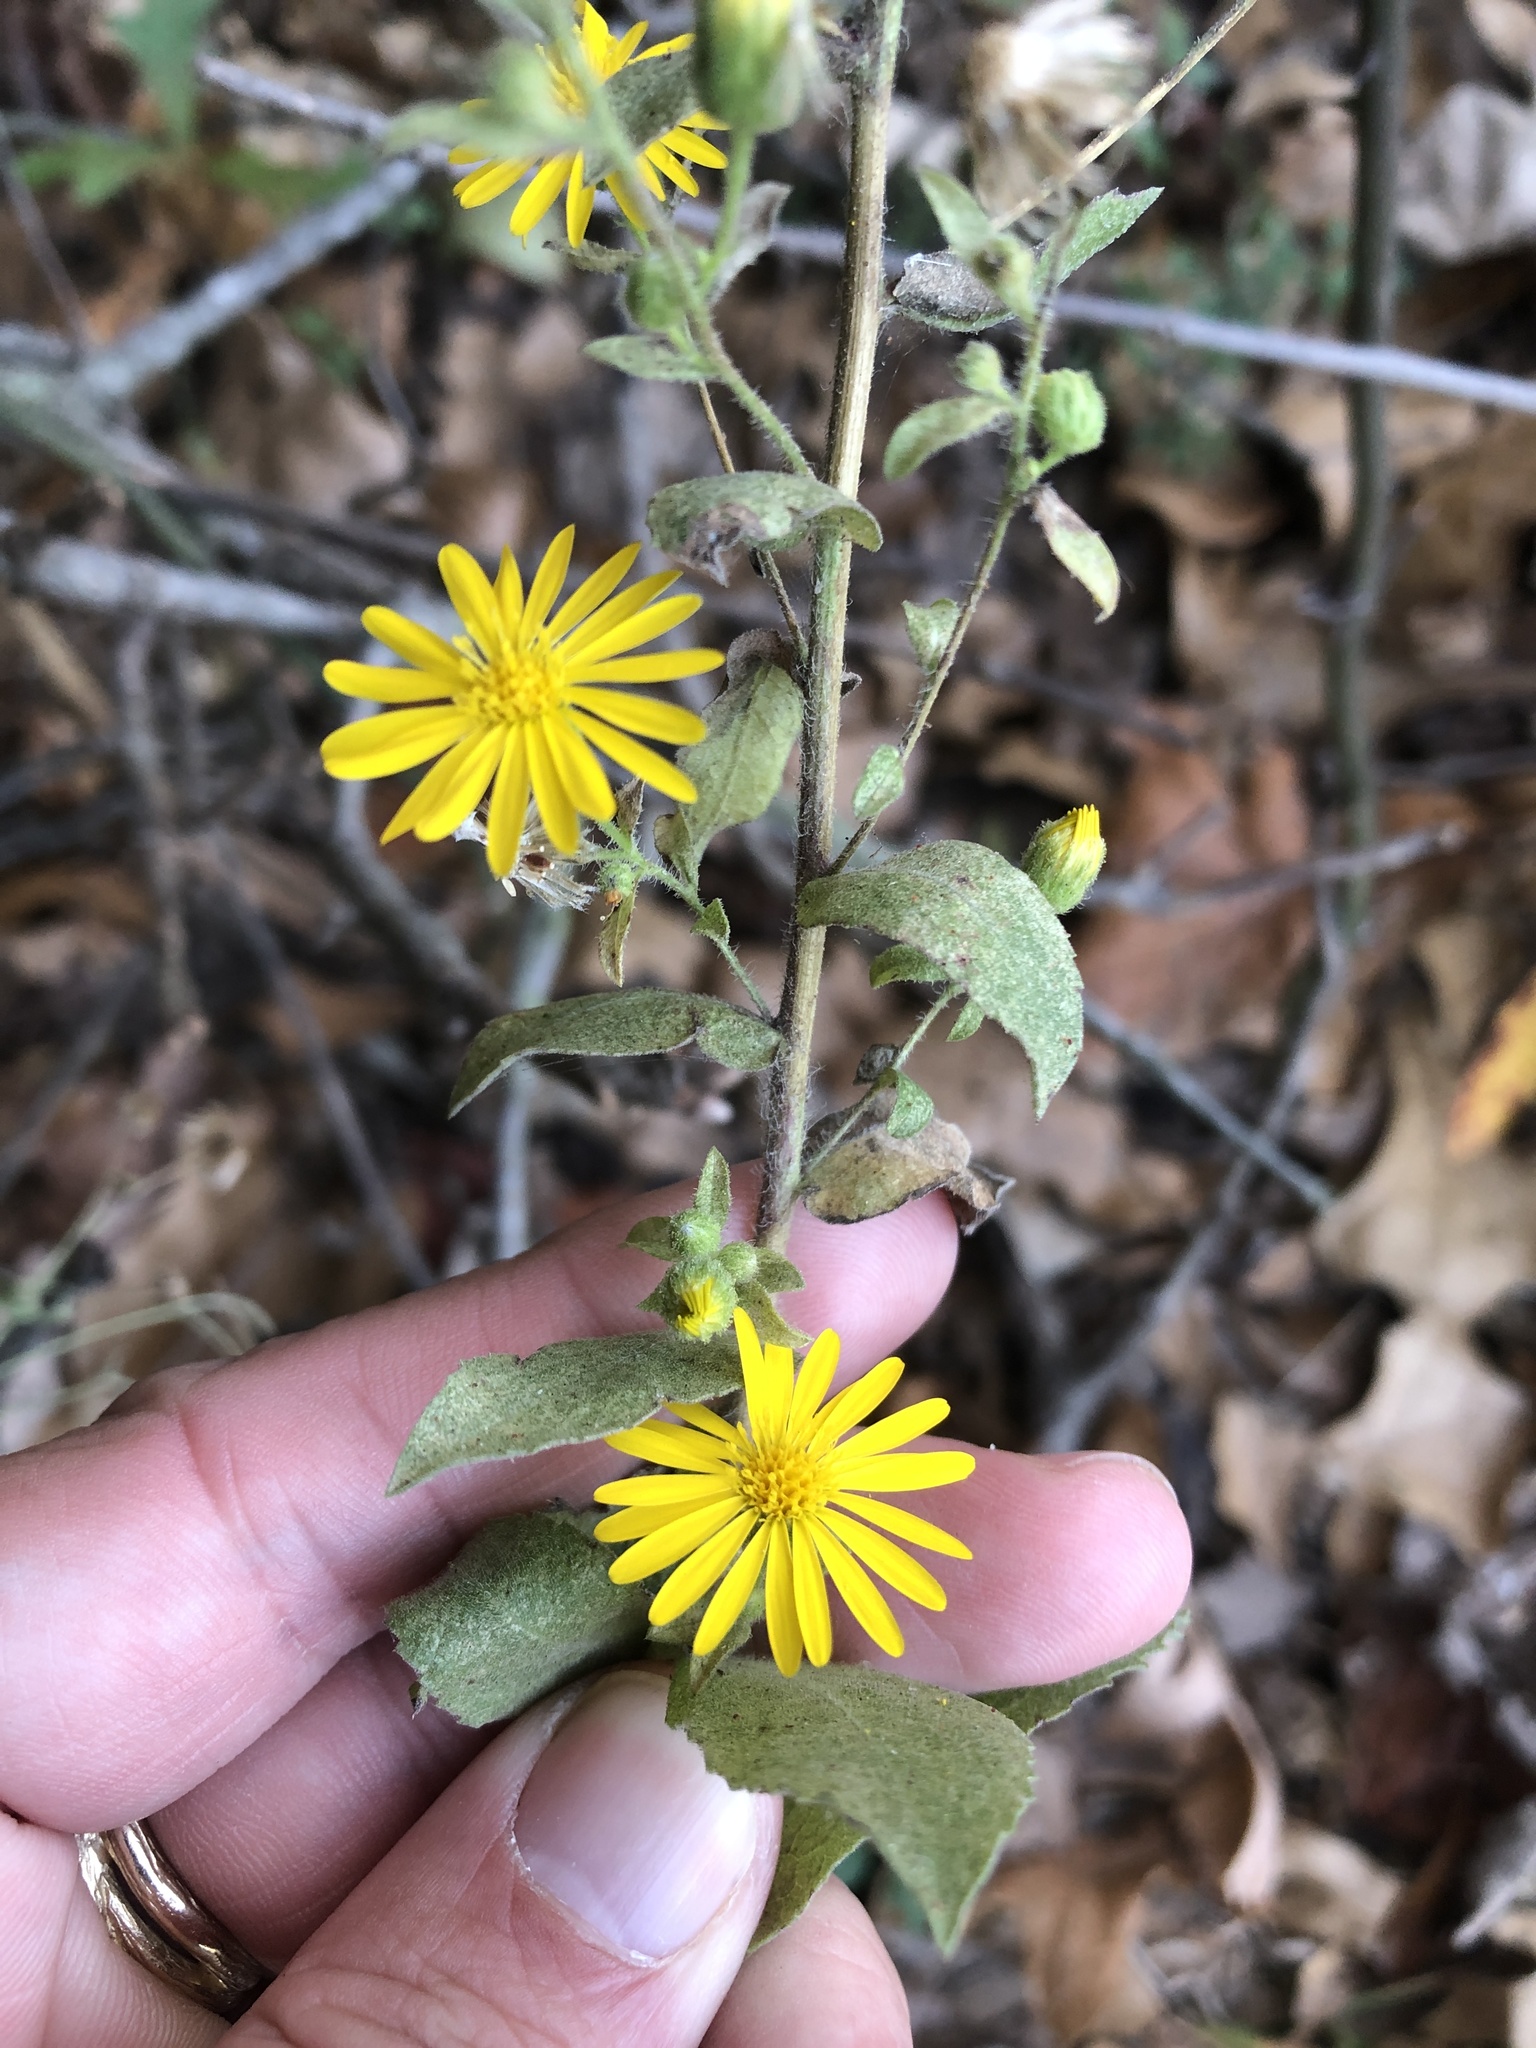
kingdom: Plantae
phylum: Tracheophyta
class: Magnoliopsida
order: Asterales
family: Asteraceae
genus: Heterotheca
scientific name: Heterotheca subaxillaris
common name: Camphorweed
